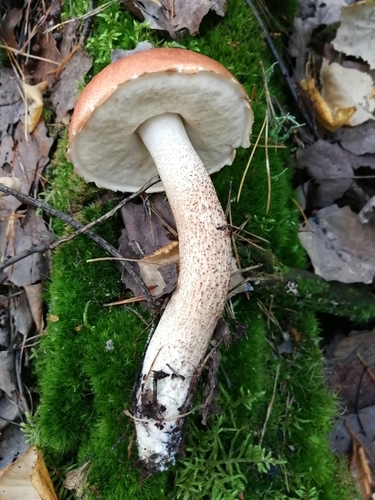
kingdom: Fungi
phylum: Basidiomycota
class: Agaricomycetes
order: Boletales
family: Boletaceae
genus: Leccinum
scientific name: Leccinum aurantiacum
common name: Orange bolete
